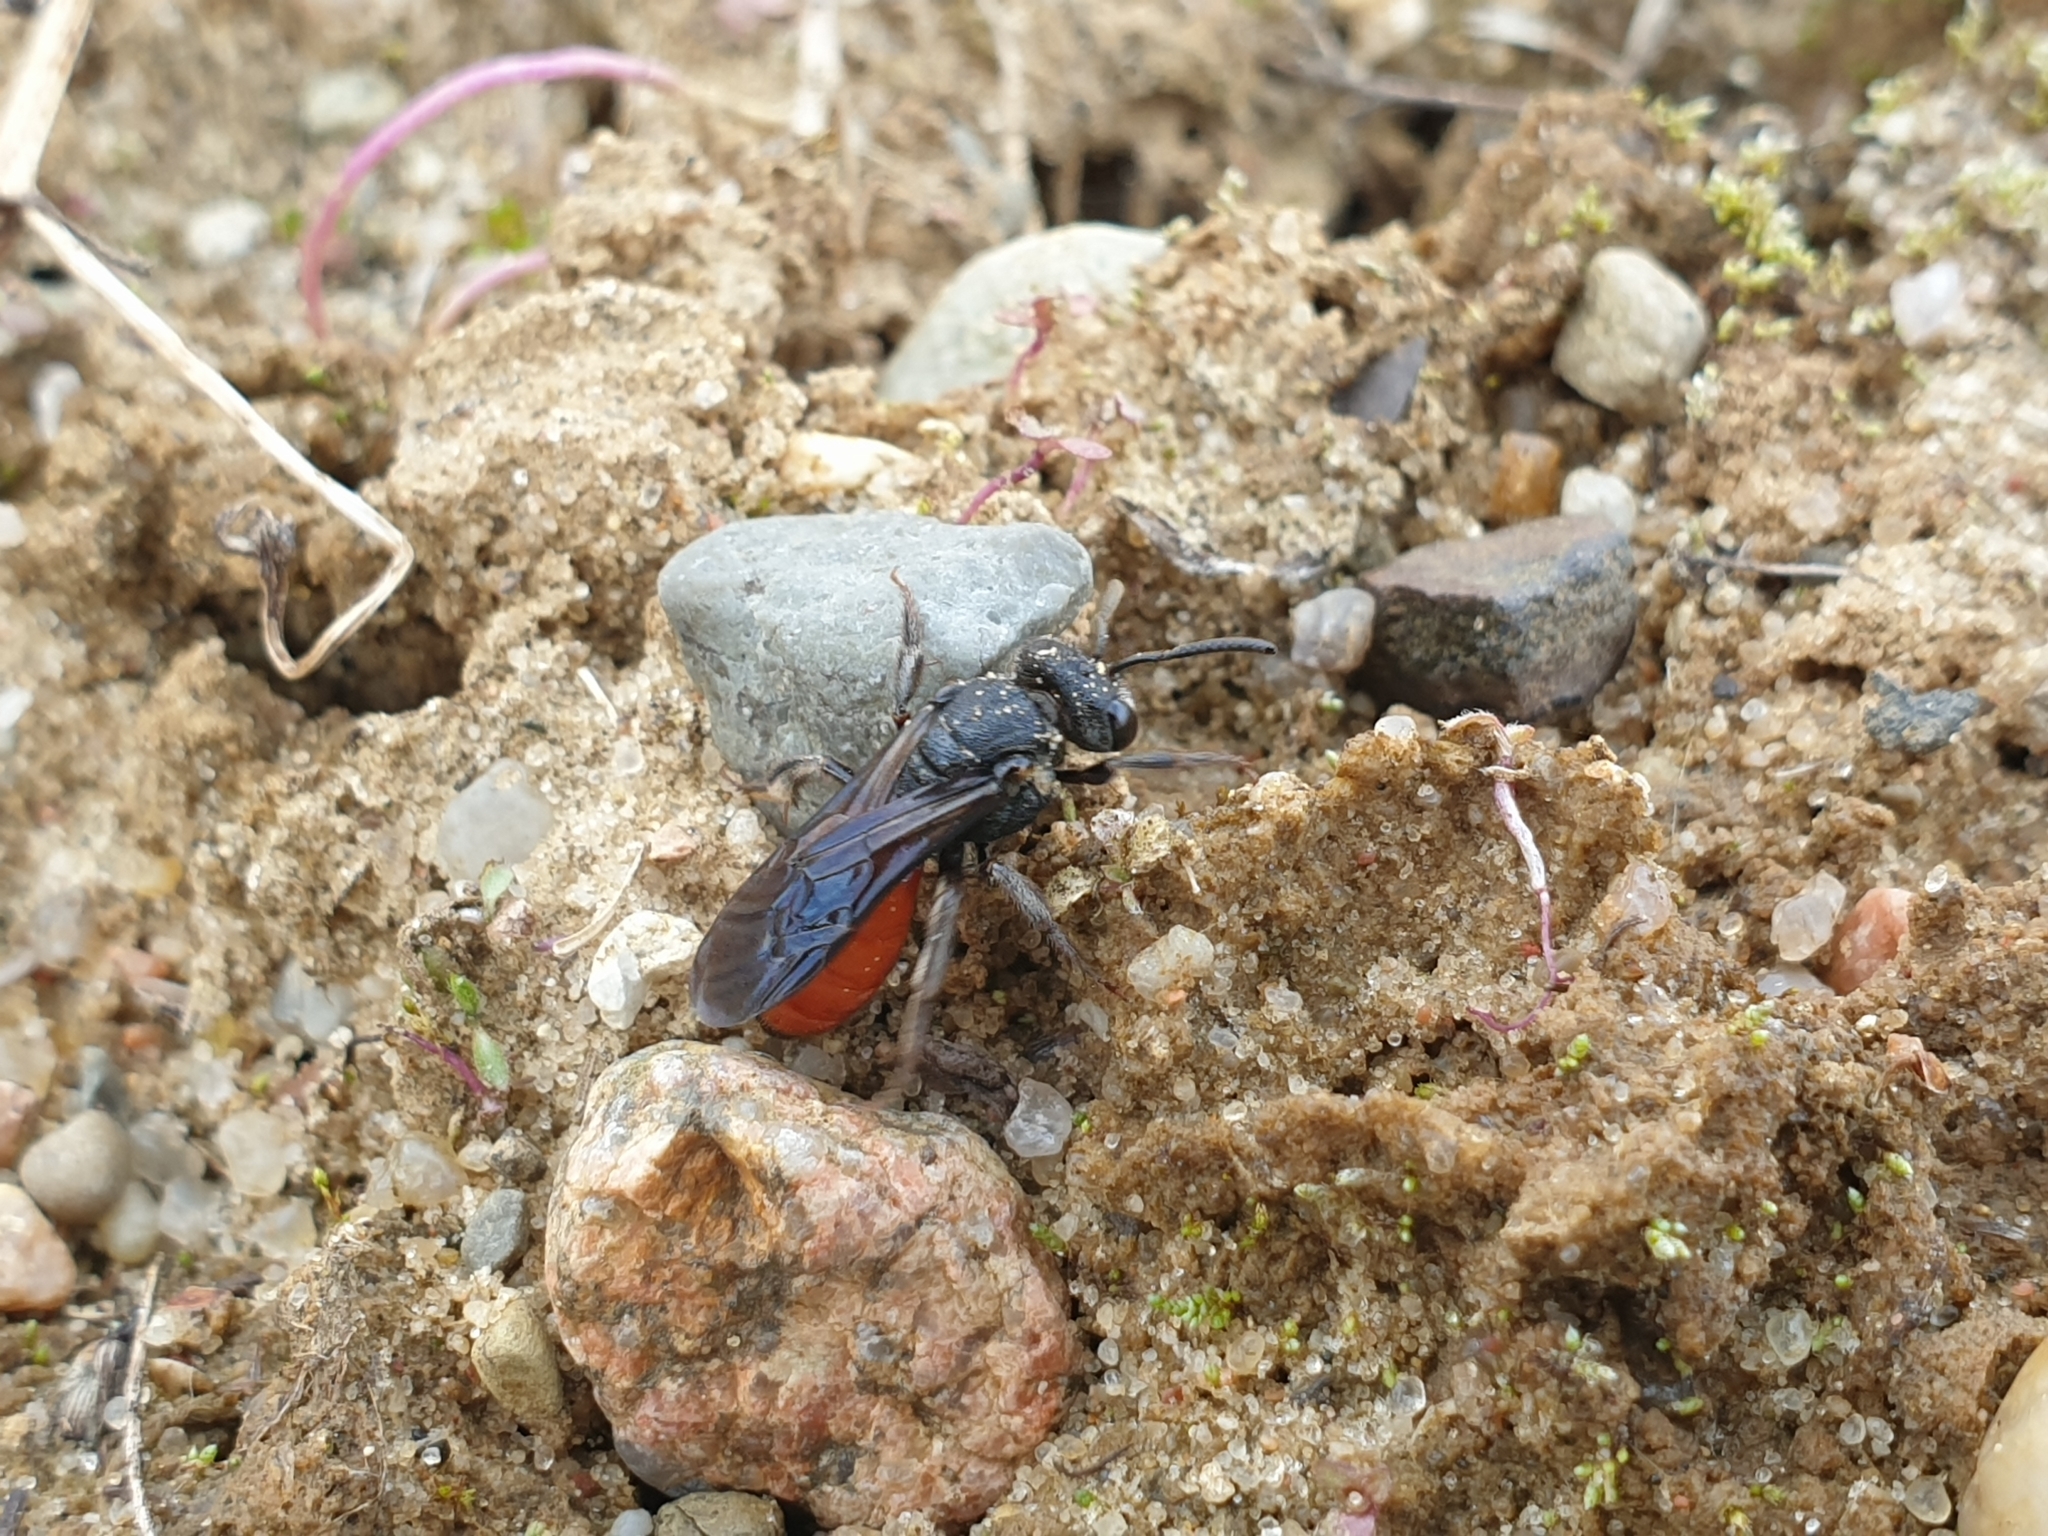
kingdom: Animalia
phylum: Arthropoda
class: Insecta
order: Hymenoptera
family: Halictidae
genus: Sphecodes
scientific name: Sphecodes albilabris
